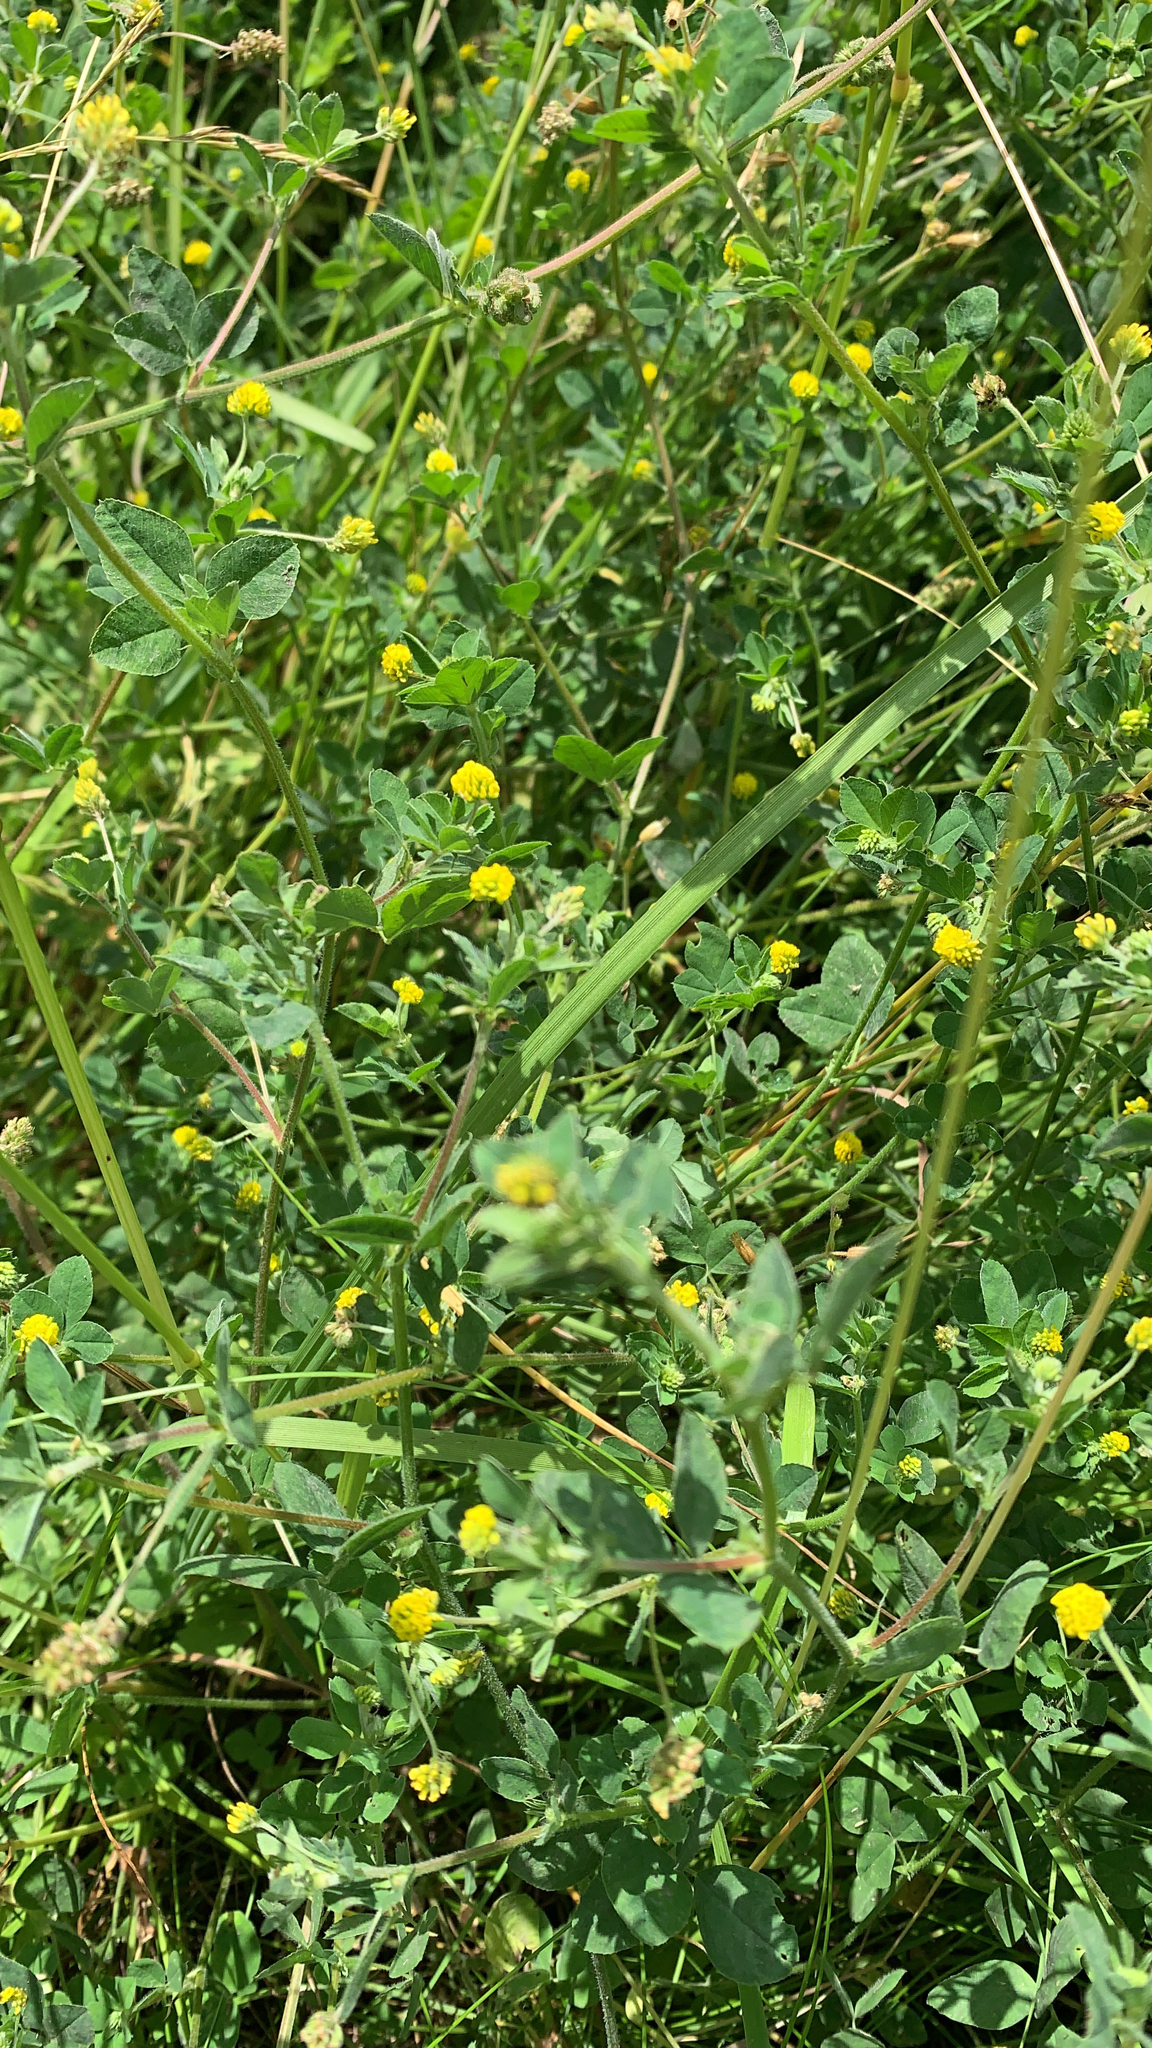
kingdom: Plantae
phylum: Tracheophyta
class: Magnoliopsida
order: Fabales
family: Fabaceae
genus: Medicago
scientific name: Medicago lupulina
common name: Black medick
